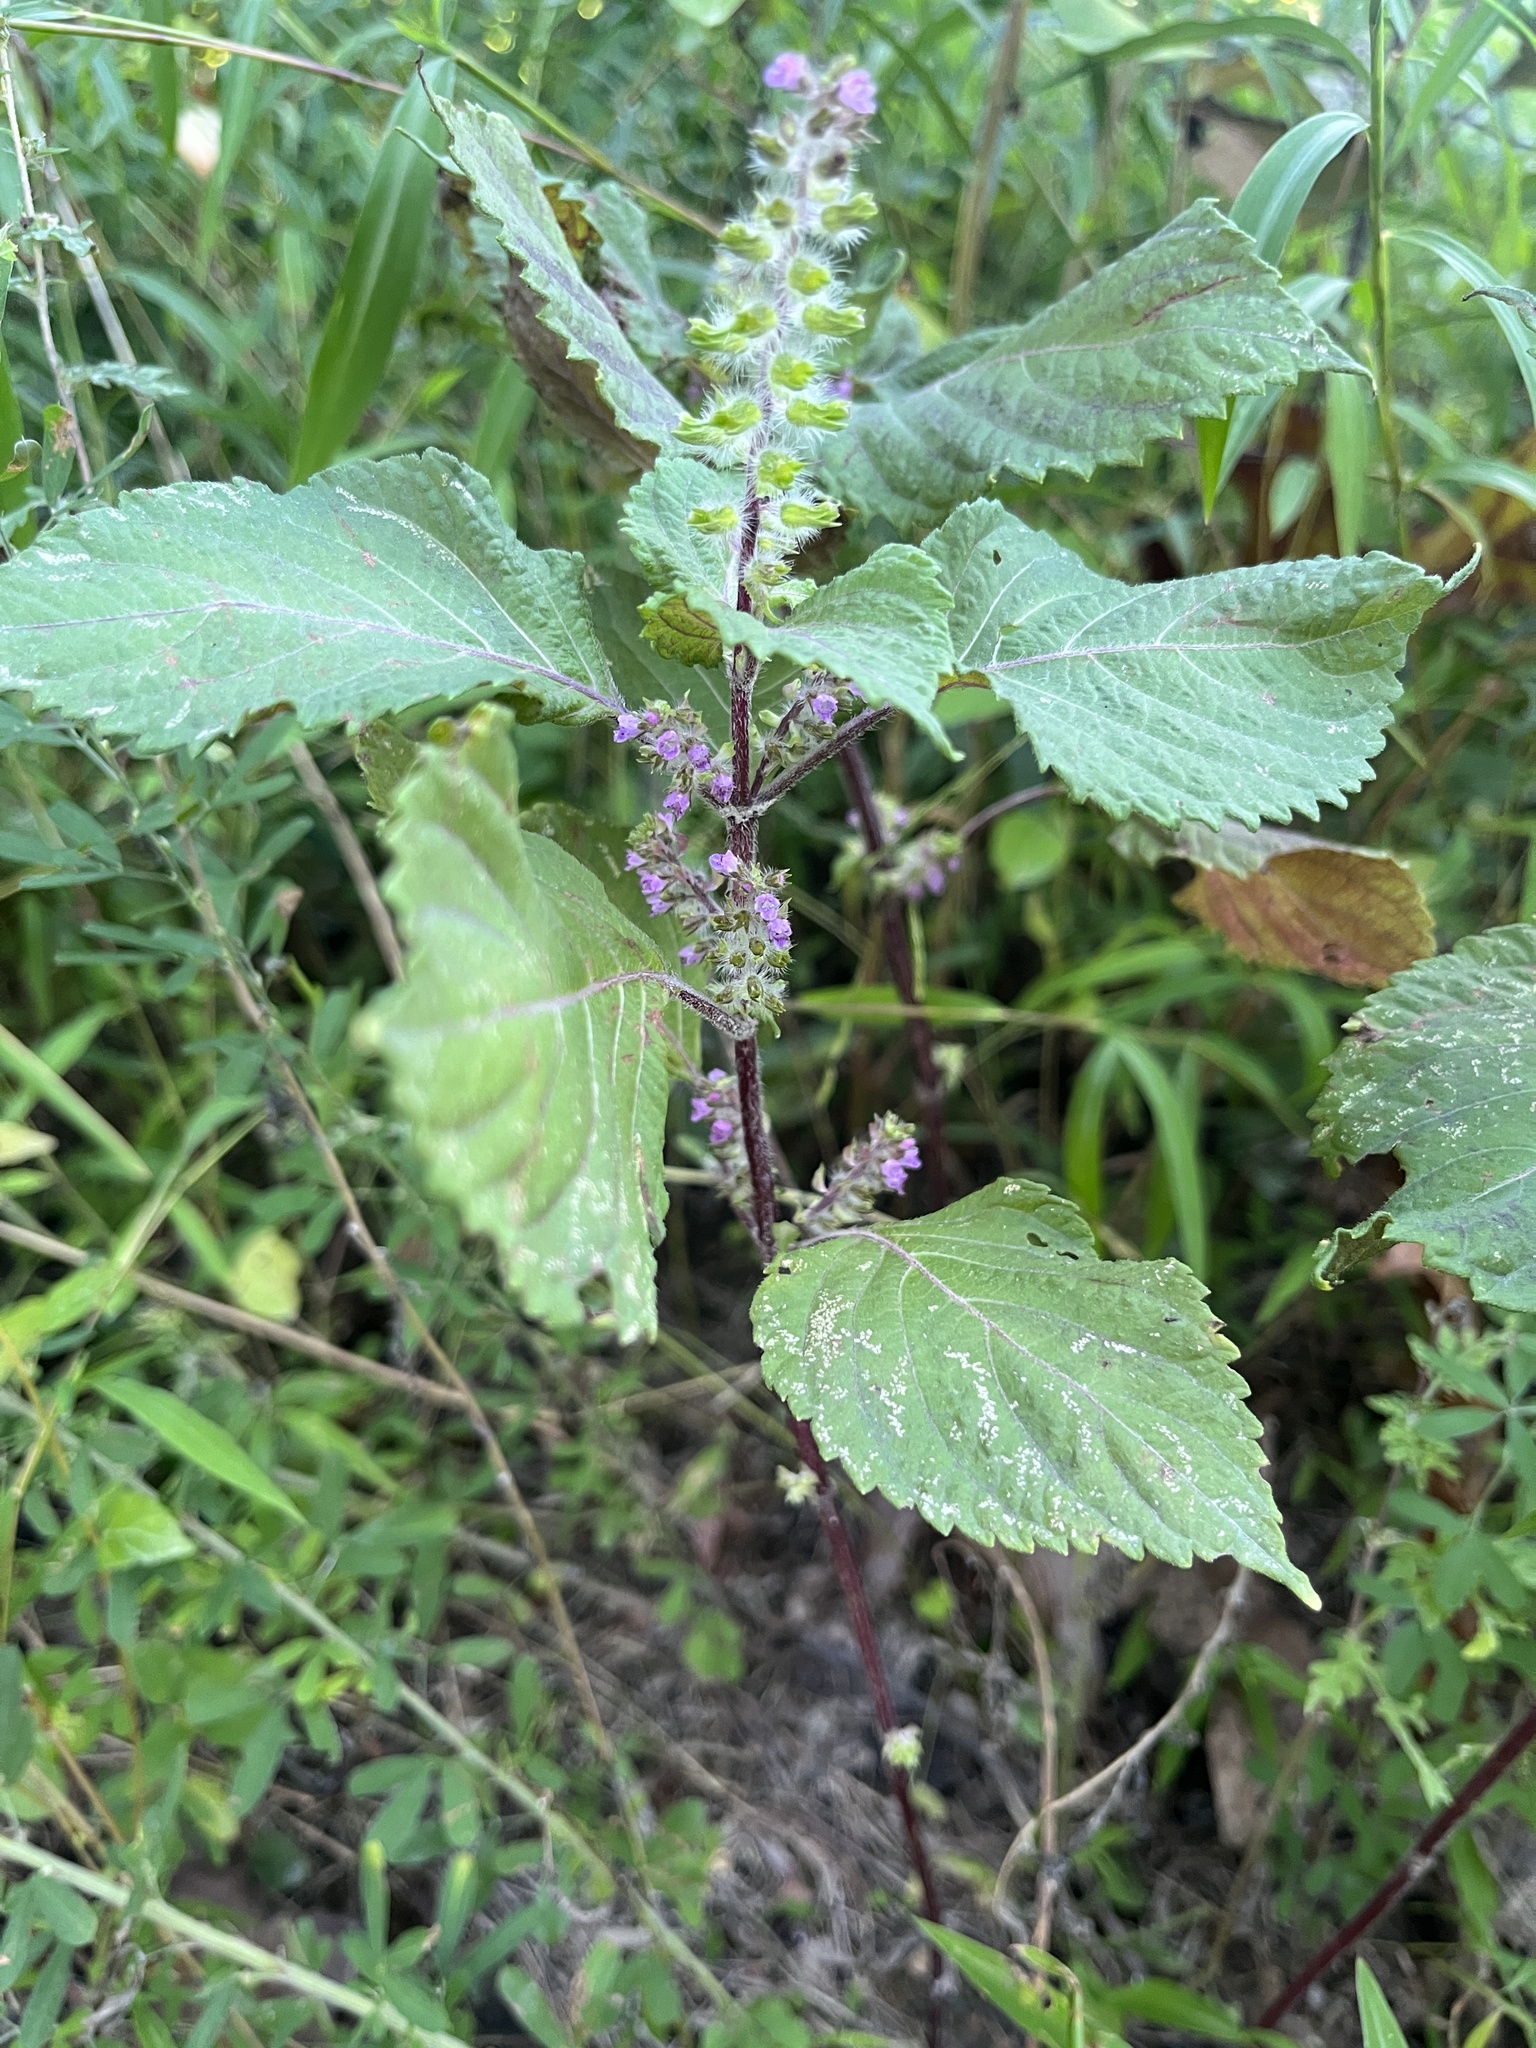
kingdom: Plantae
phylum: Tracheophyta
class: Magnoliopsida
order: Lamiales
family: Lamiaceae
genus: Perilla
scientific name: Perilla frutescens
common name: Perilla
